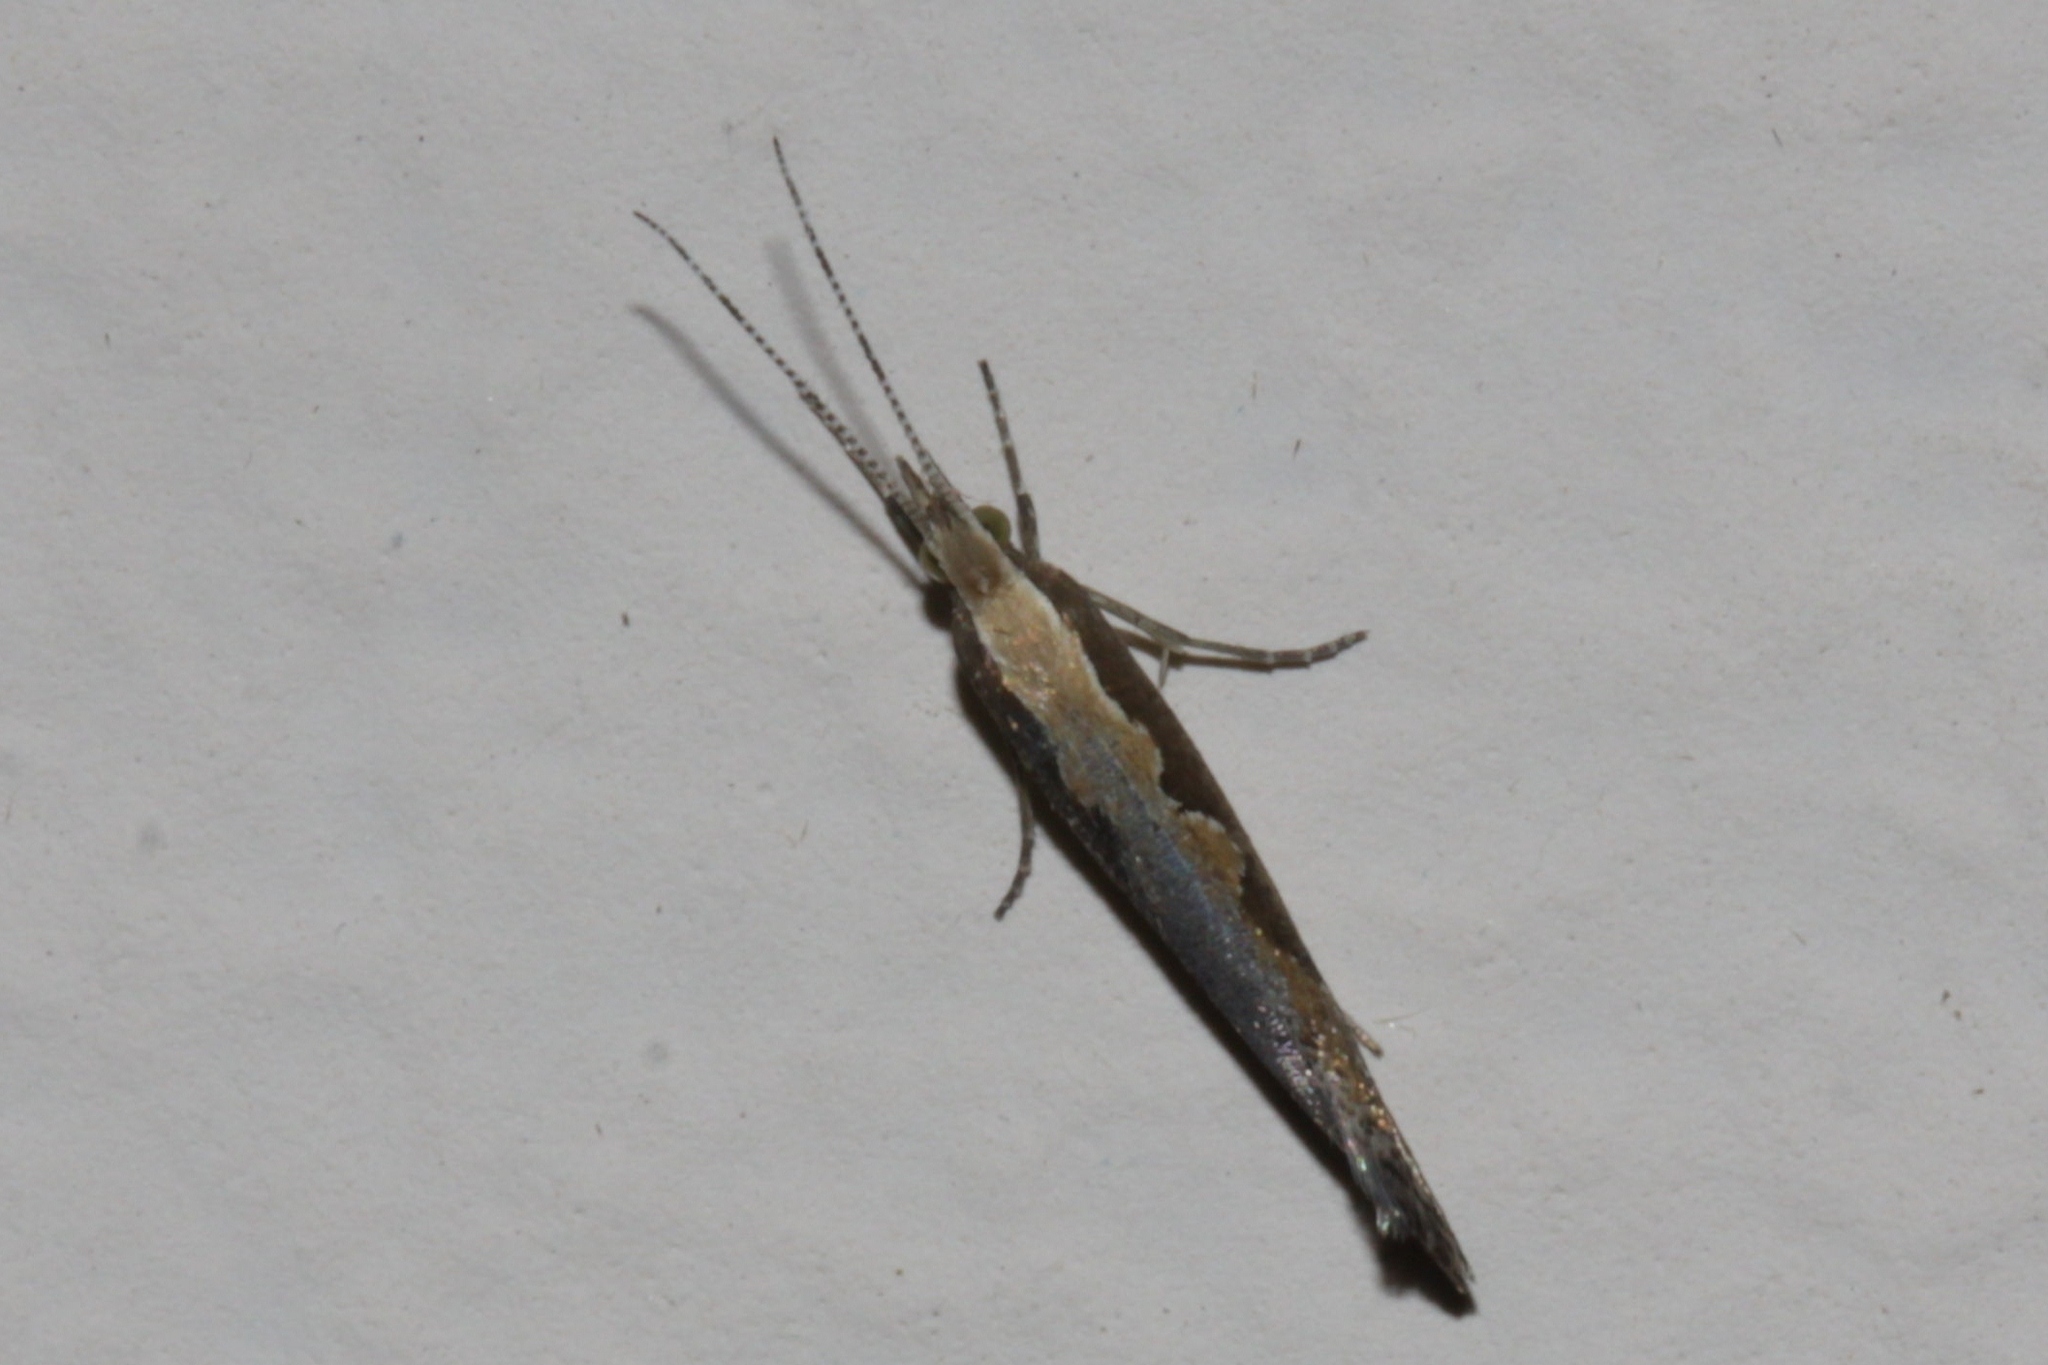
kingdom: Animalia
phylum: Arthropoda
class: Insecta
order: Lepidoptera
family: Plutellidae
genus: Plutella
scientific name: Plutella xylostella
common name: Diamond-back moth
